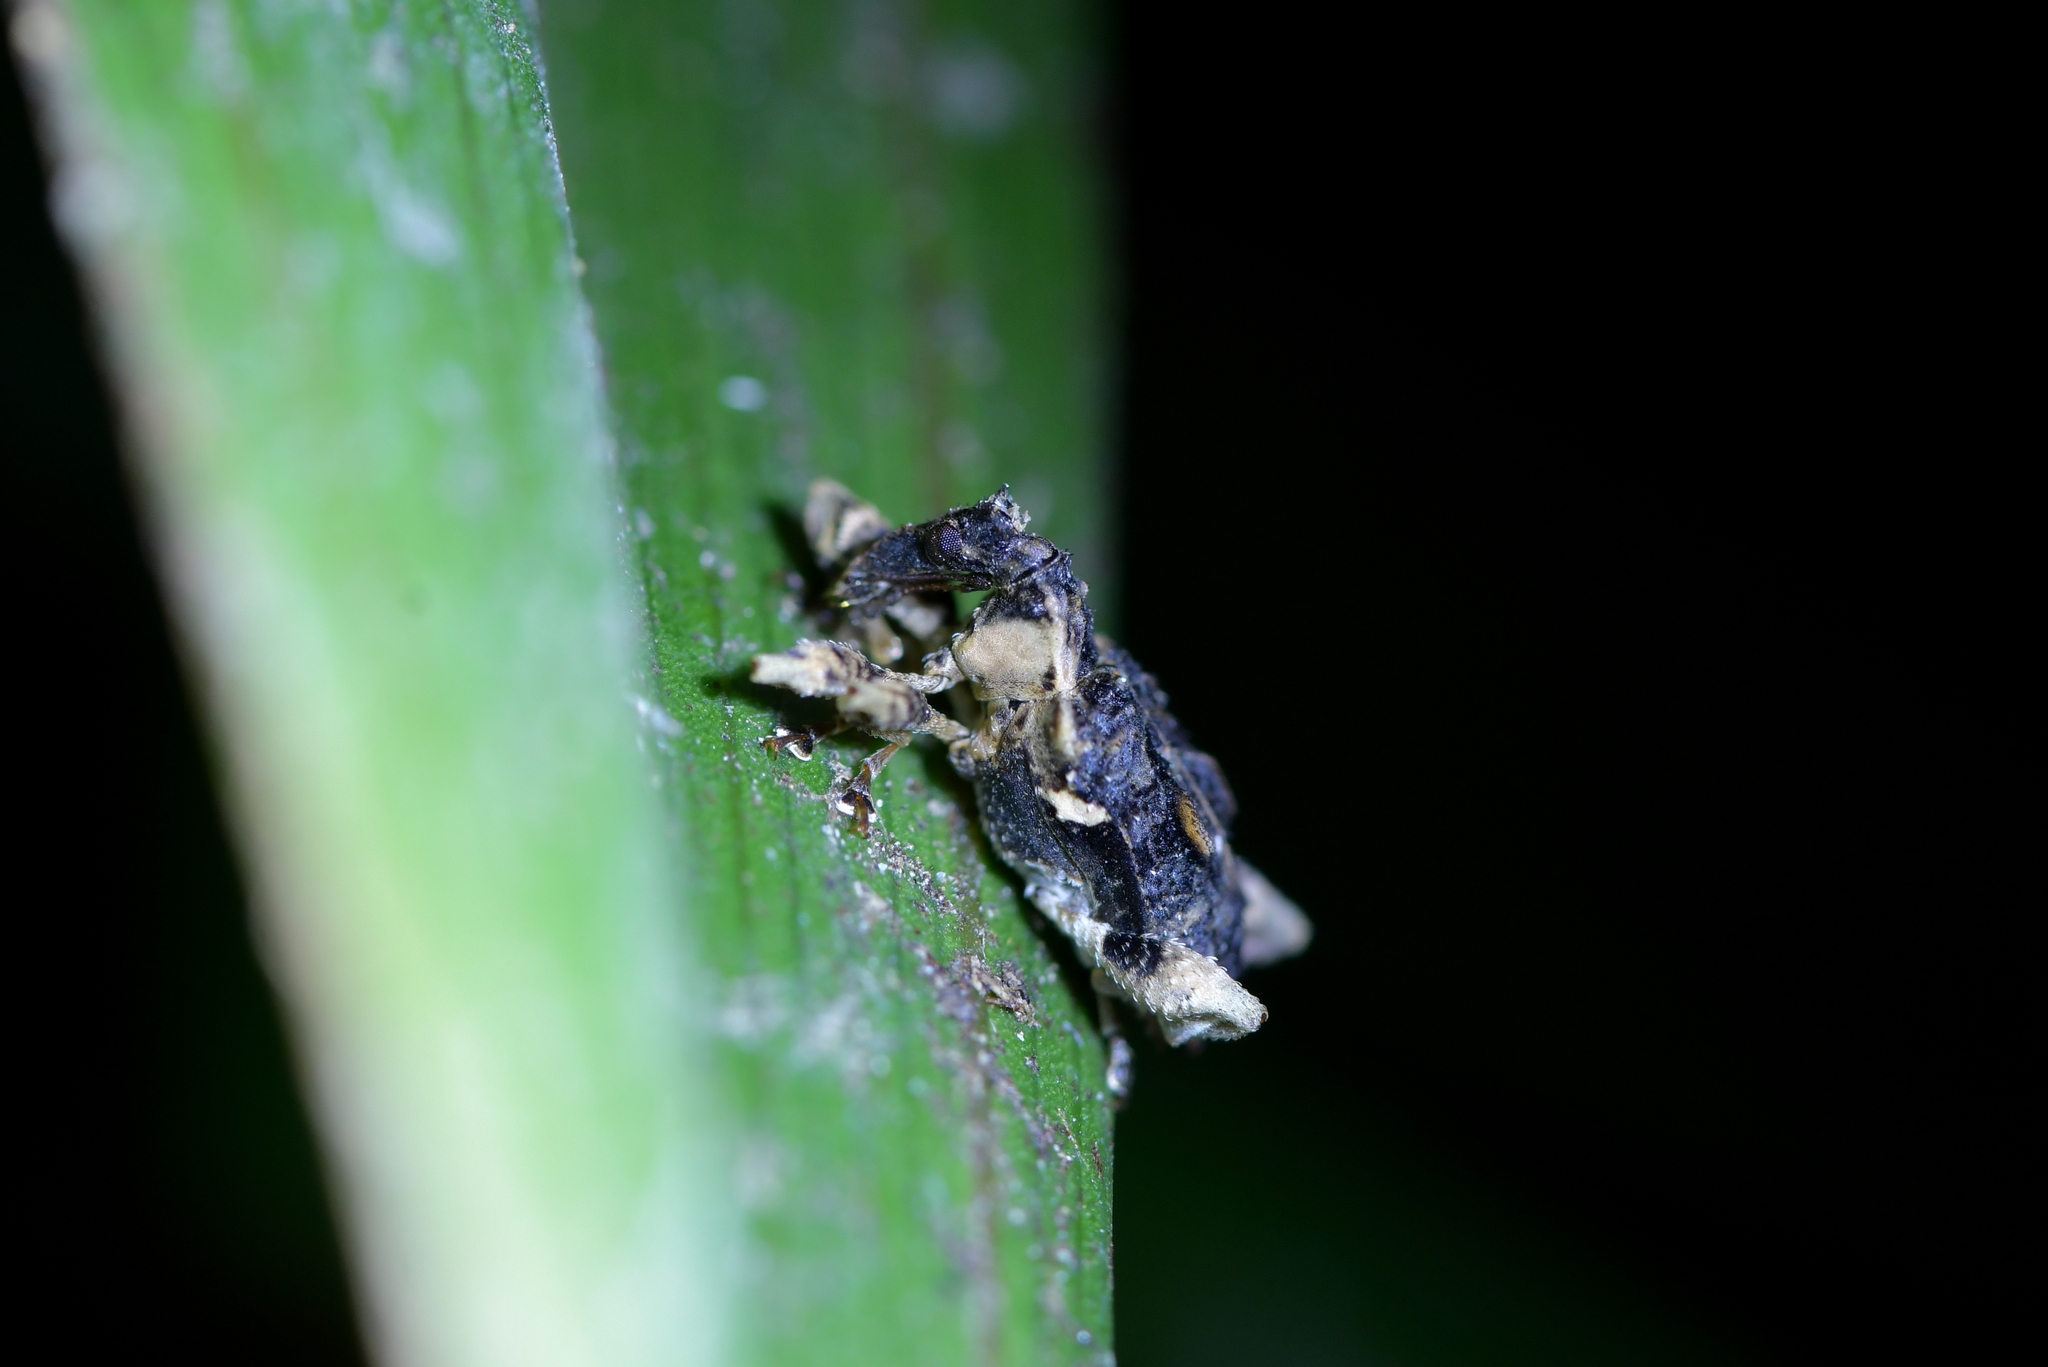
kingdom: Animalia
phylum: Arthropoda
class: Insecta
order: Coleoptera
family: Curculionidae
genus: Stephanorhynchus
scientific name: Stephanorhynchus curvipes
